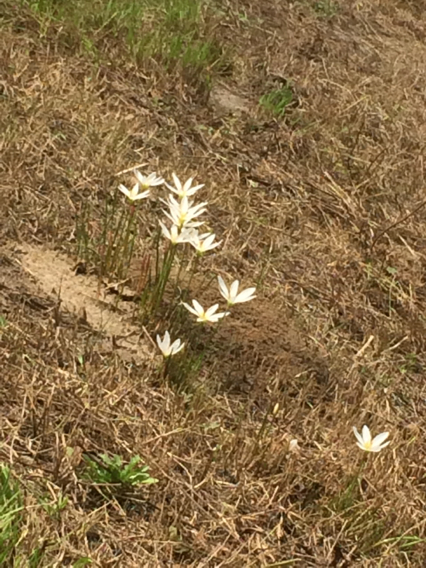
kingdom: Plantae
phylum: Tracheophyta
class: Liliopsida
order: Asparagales
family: Amaryllidaceae
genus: Zephyranthes
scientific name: Zephyranthes candida
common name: Autumn zephyrlily
